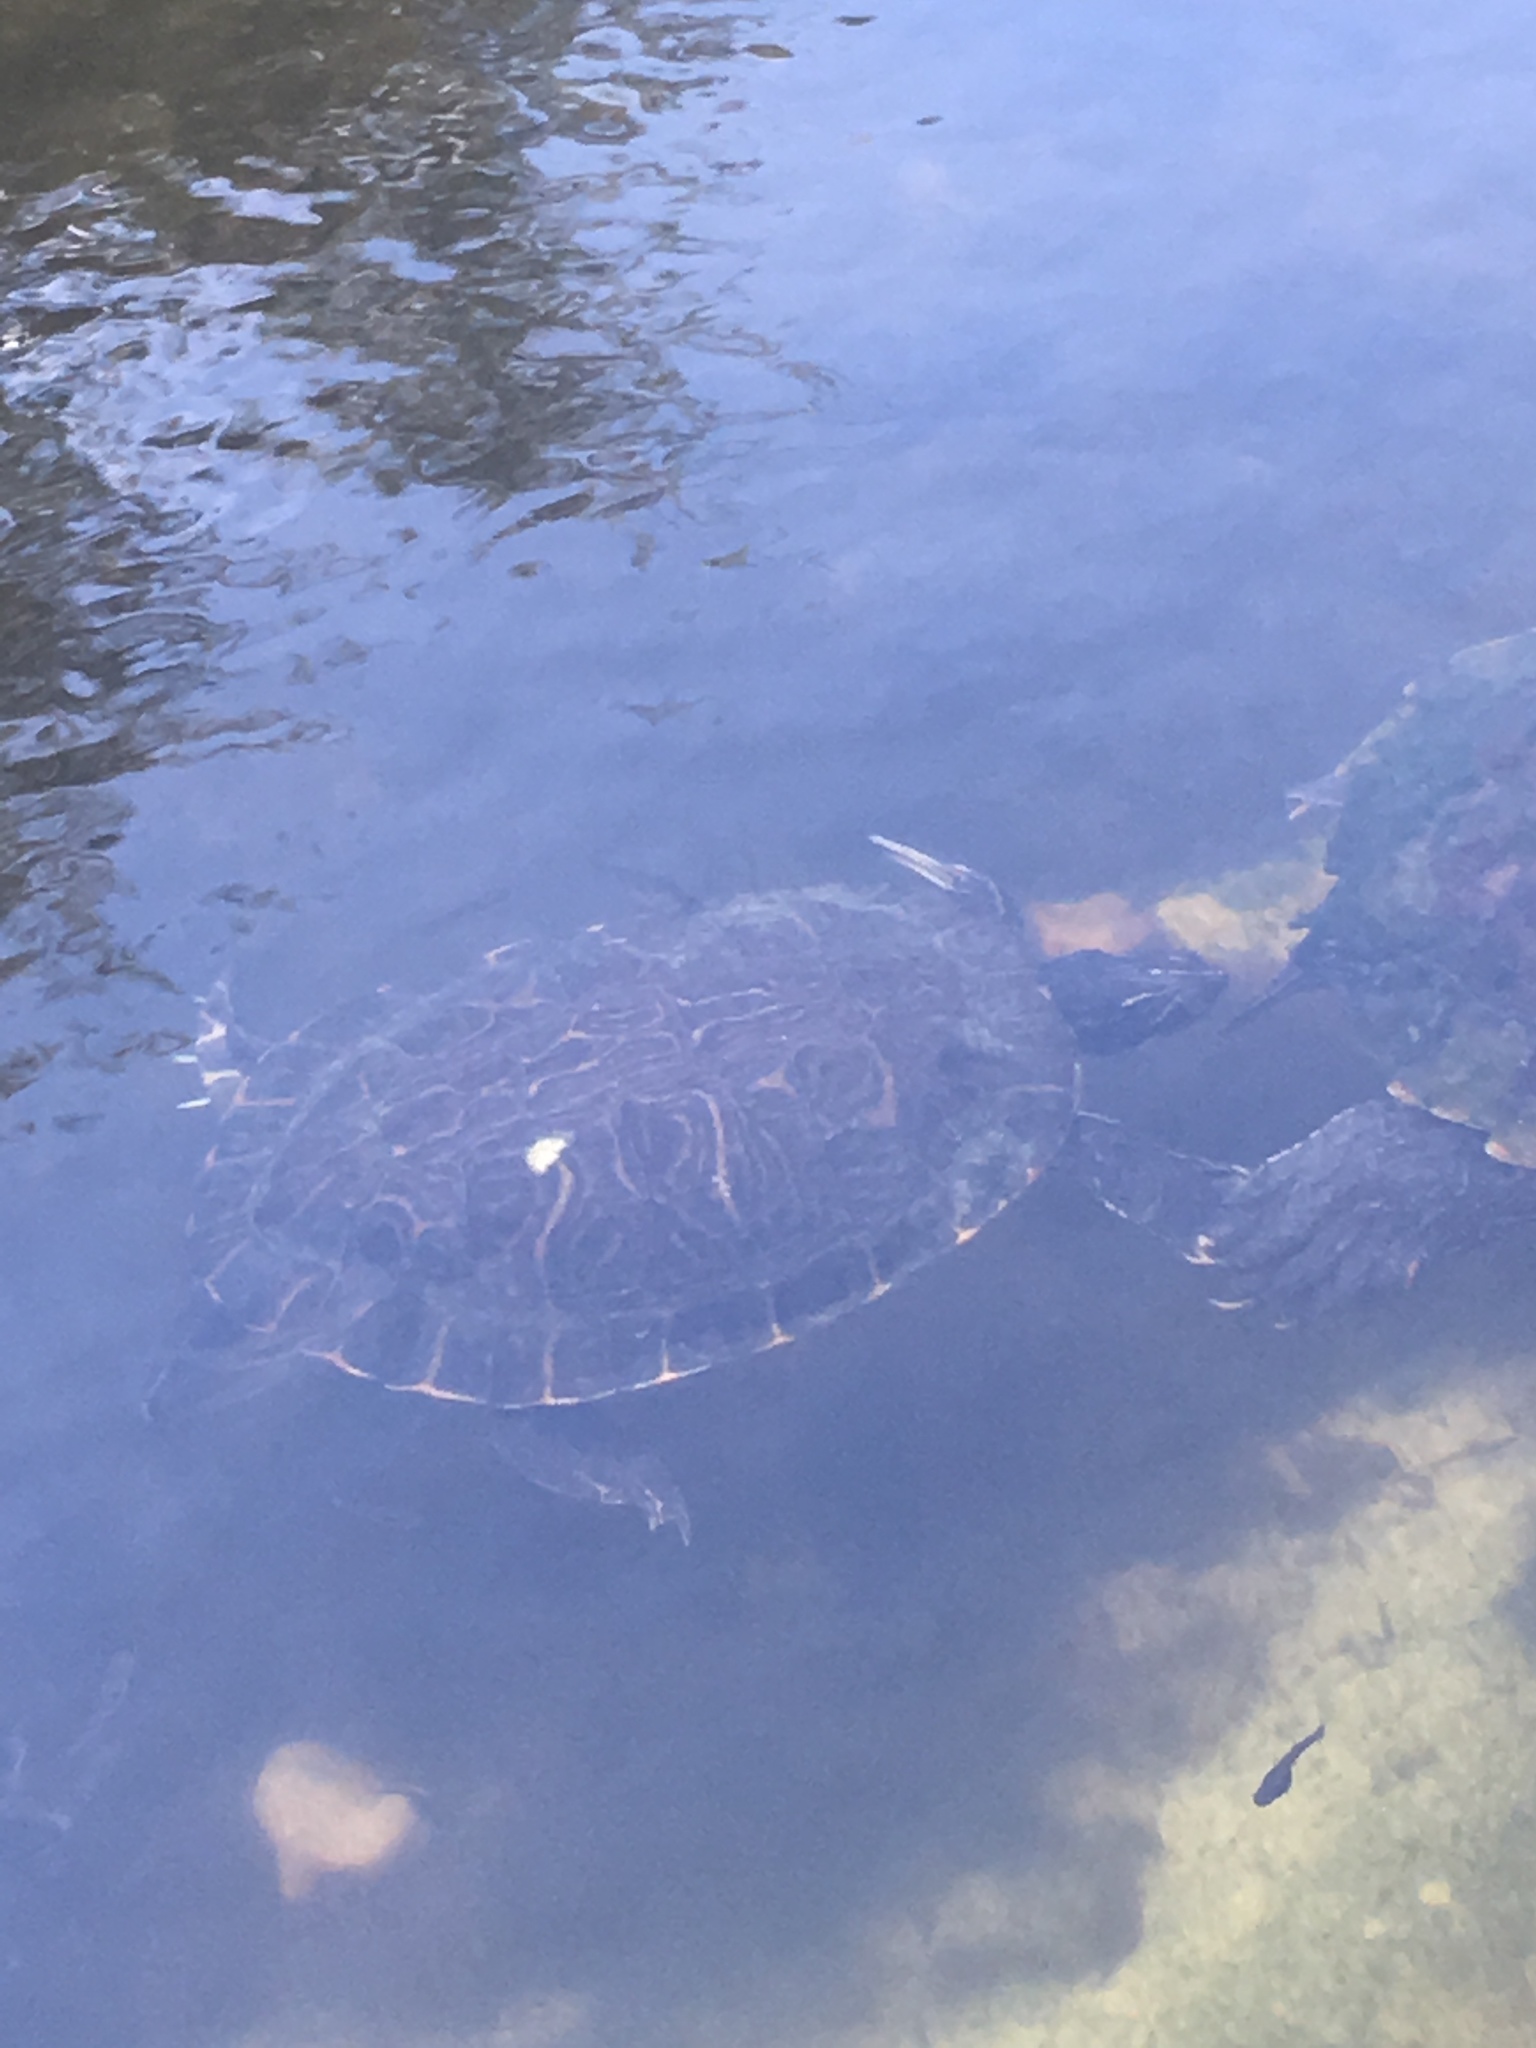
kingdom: Animalia
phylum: Chordata
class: Testudines
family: Emydidae
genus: Pseudemys
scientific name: Pseudemys texana
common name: Texas river cooter
